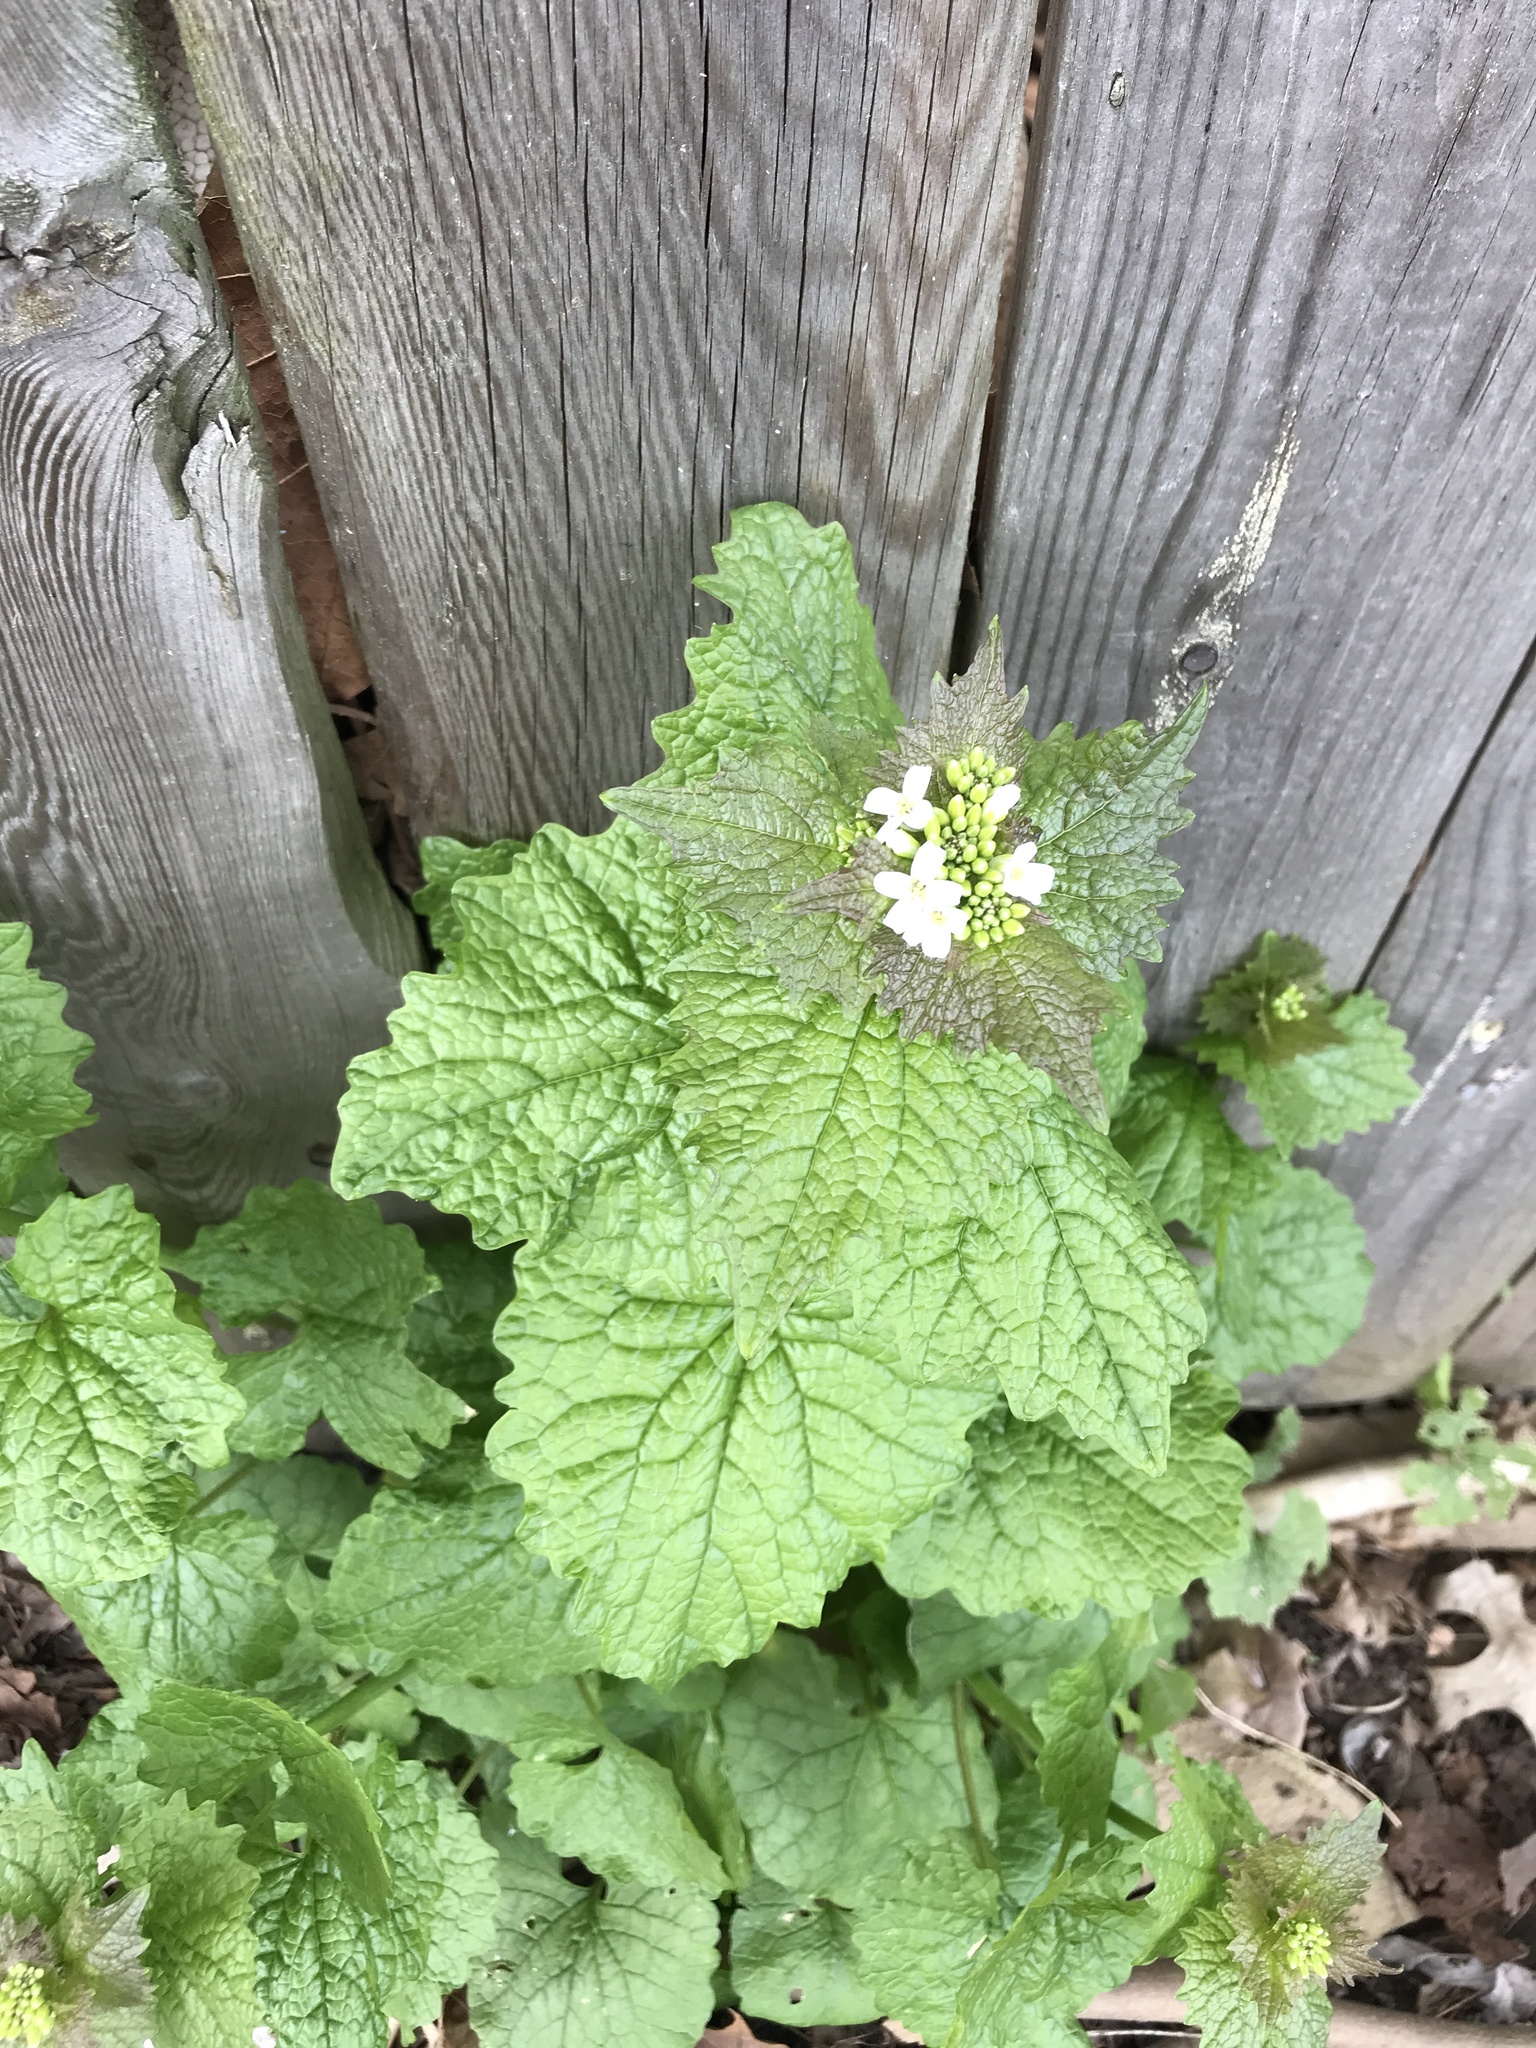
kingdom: Plantae
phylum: Tracheophyta
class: Magnoliopsida
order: Brassicales
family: Brassicaceae
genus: Alliaria
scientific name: Alliaria petiolata
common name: Garlic mustard
